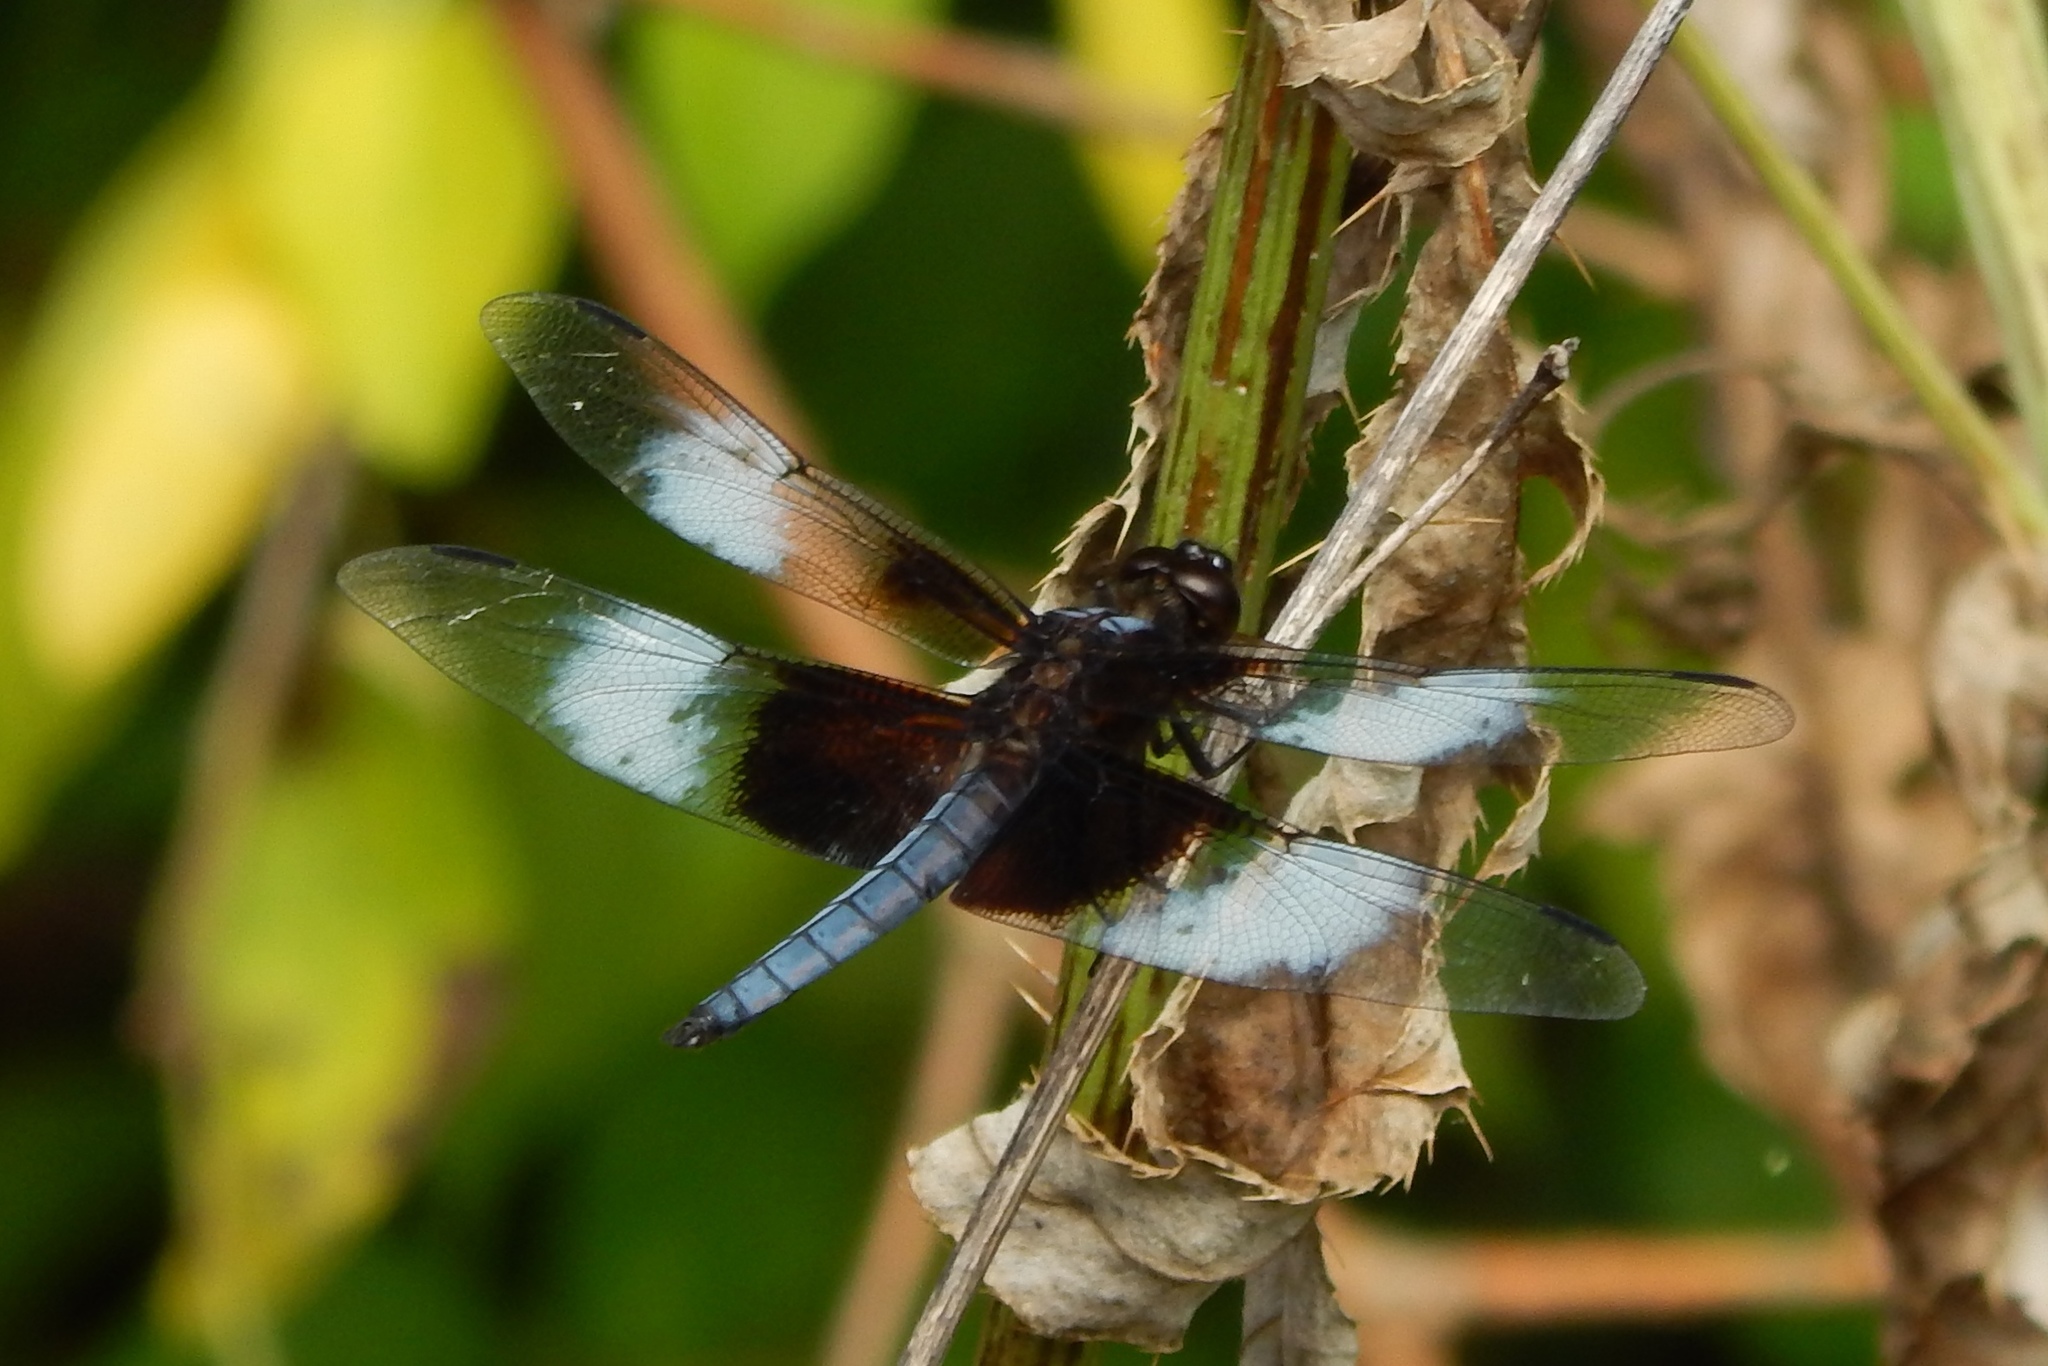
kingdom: Animalia
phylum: Arthropoda
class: Insecta
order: Odonata
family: Libellulidae
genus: Libellula
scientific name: Libellula luctuosa
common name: Widow skimmer
